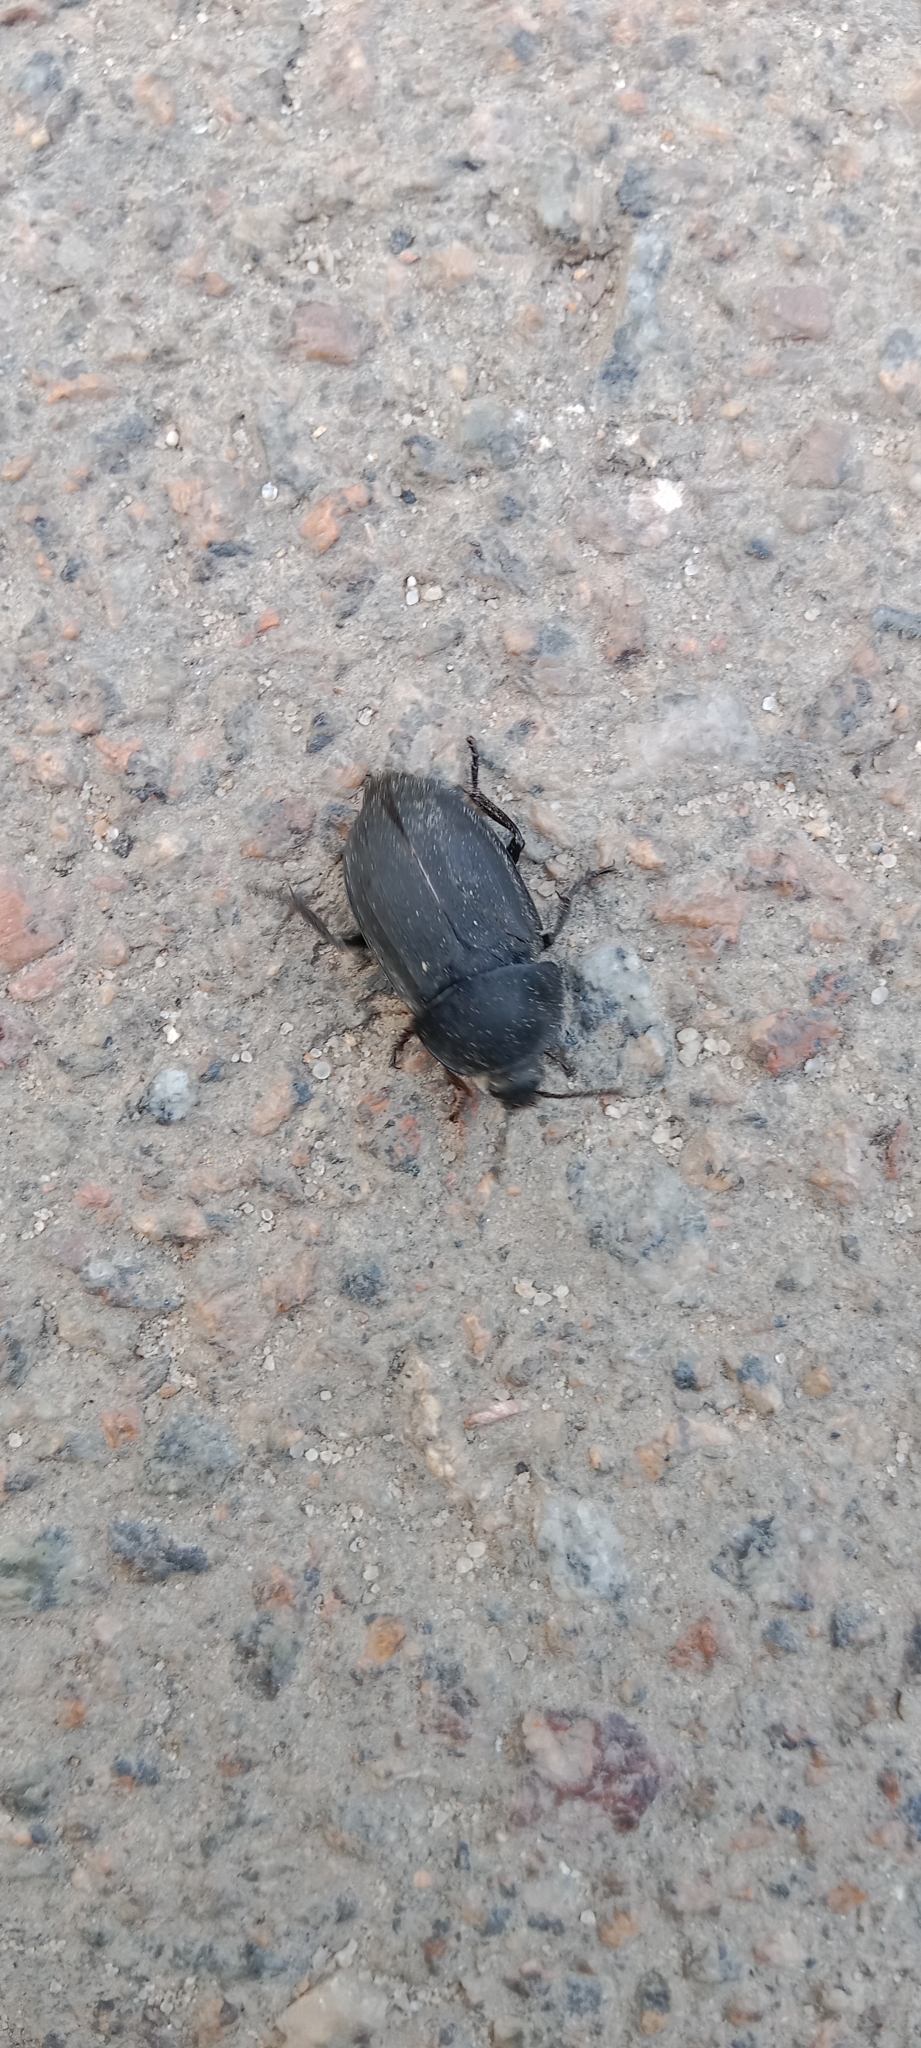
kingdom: Animalia
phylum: Arthropoda
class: Insecta
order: Coleoptera
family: Staphylinidae
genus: Silpha
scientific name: Silpha obscura
